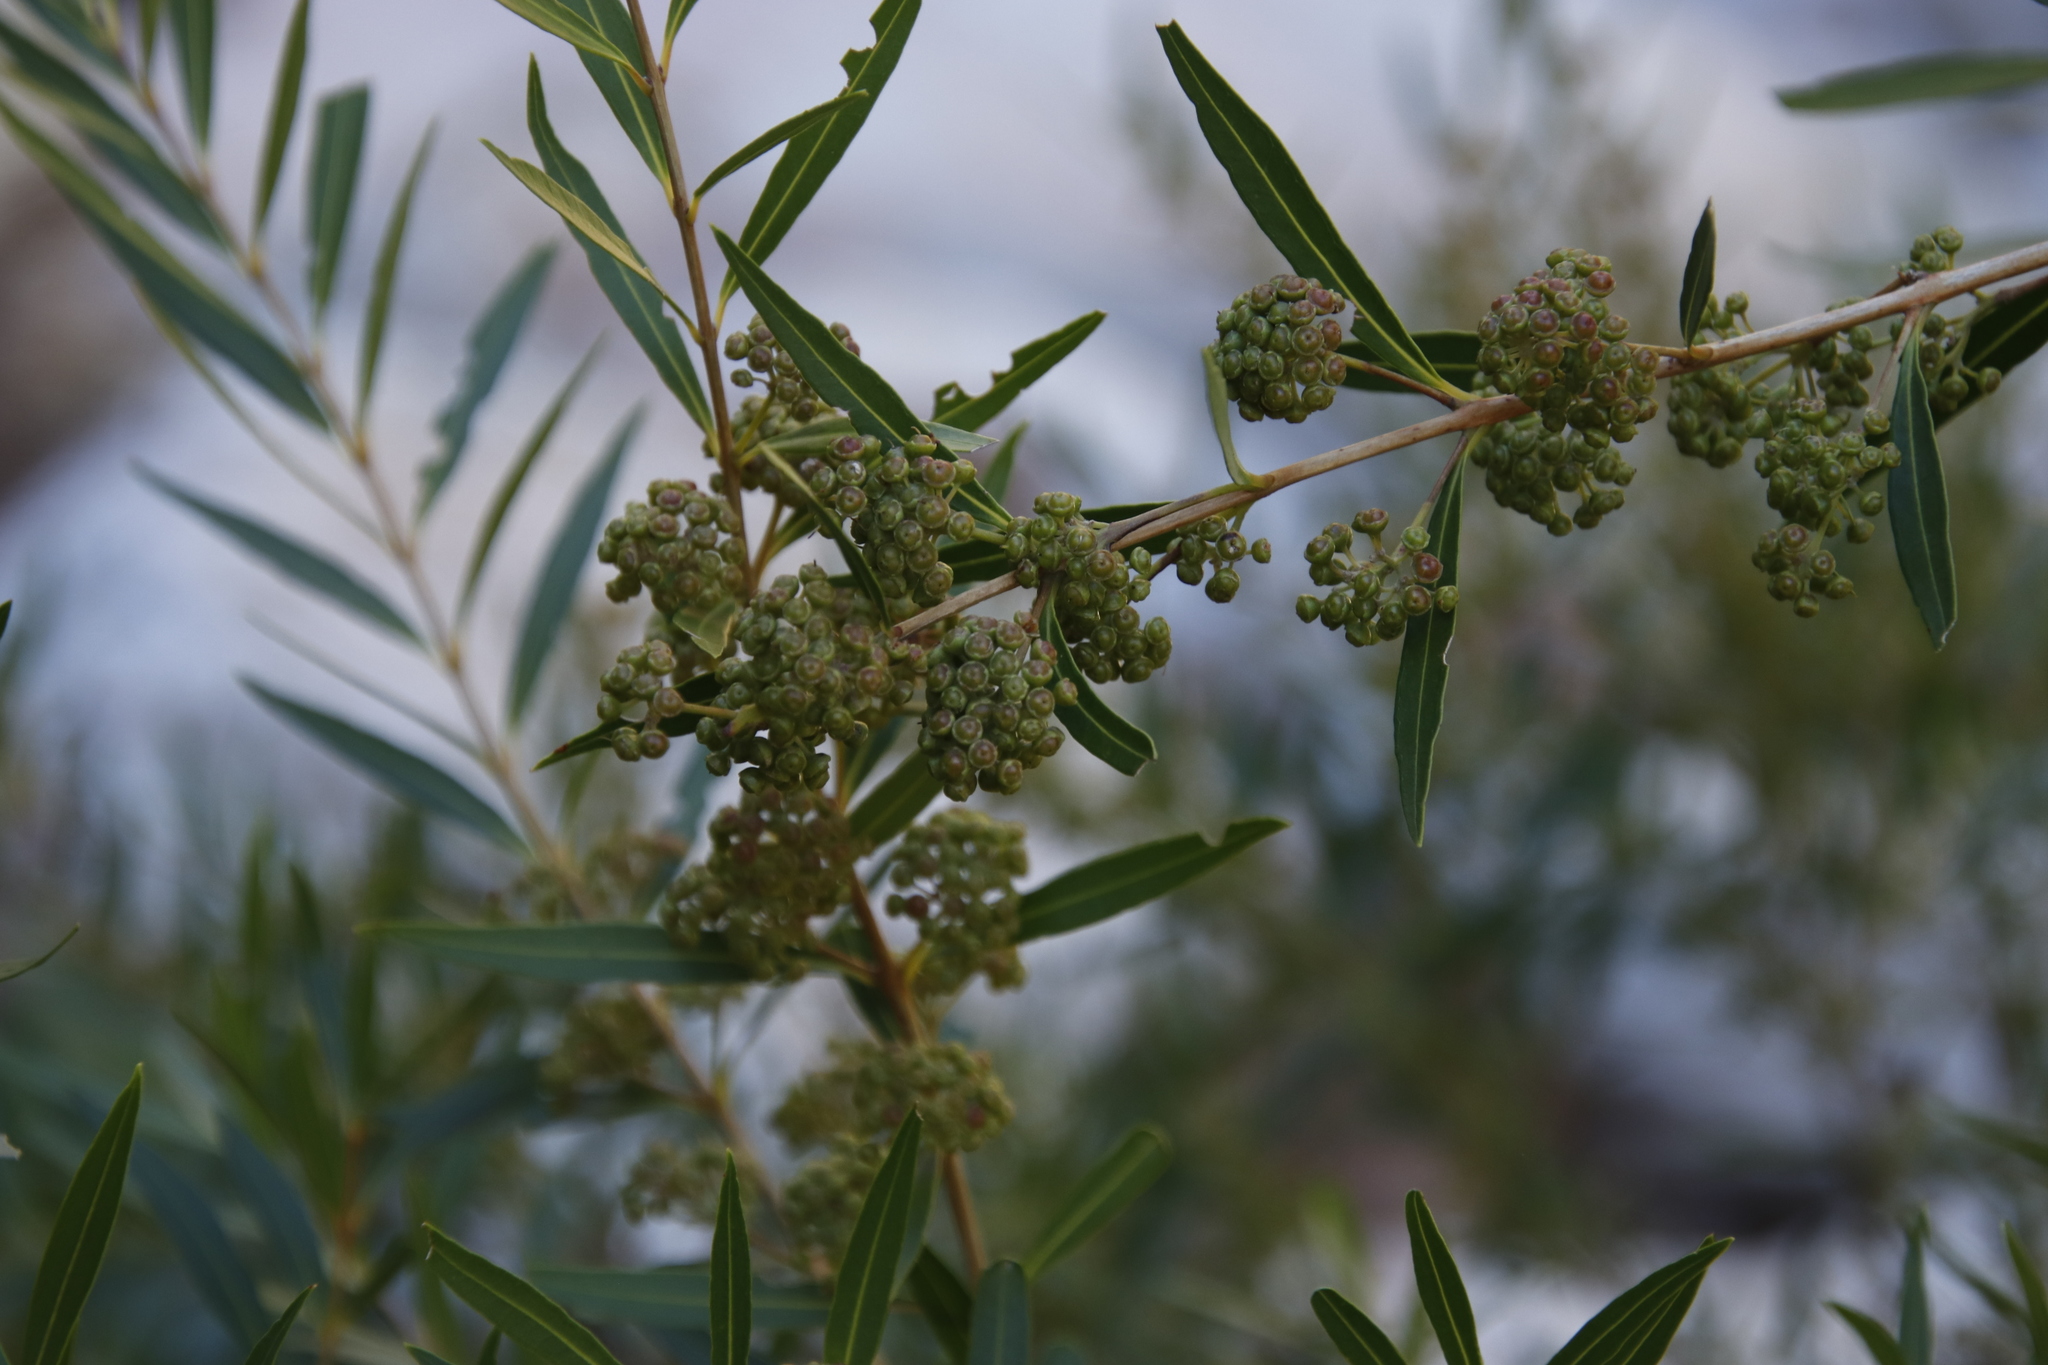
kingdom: Plantae
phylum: Tracheophyta
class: Magnoliopsida
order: Myrtales
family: Myrtaceae
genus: Callistemon
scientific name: Callistemon lanceolatus
